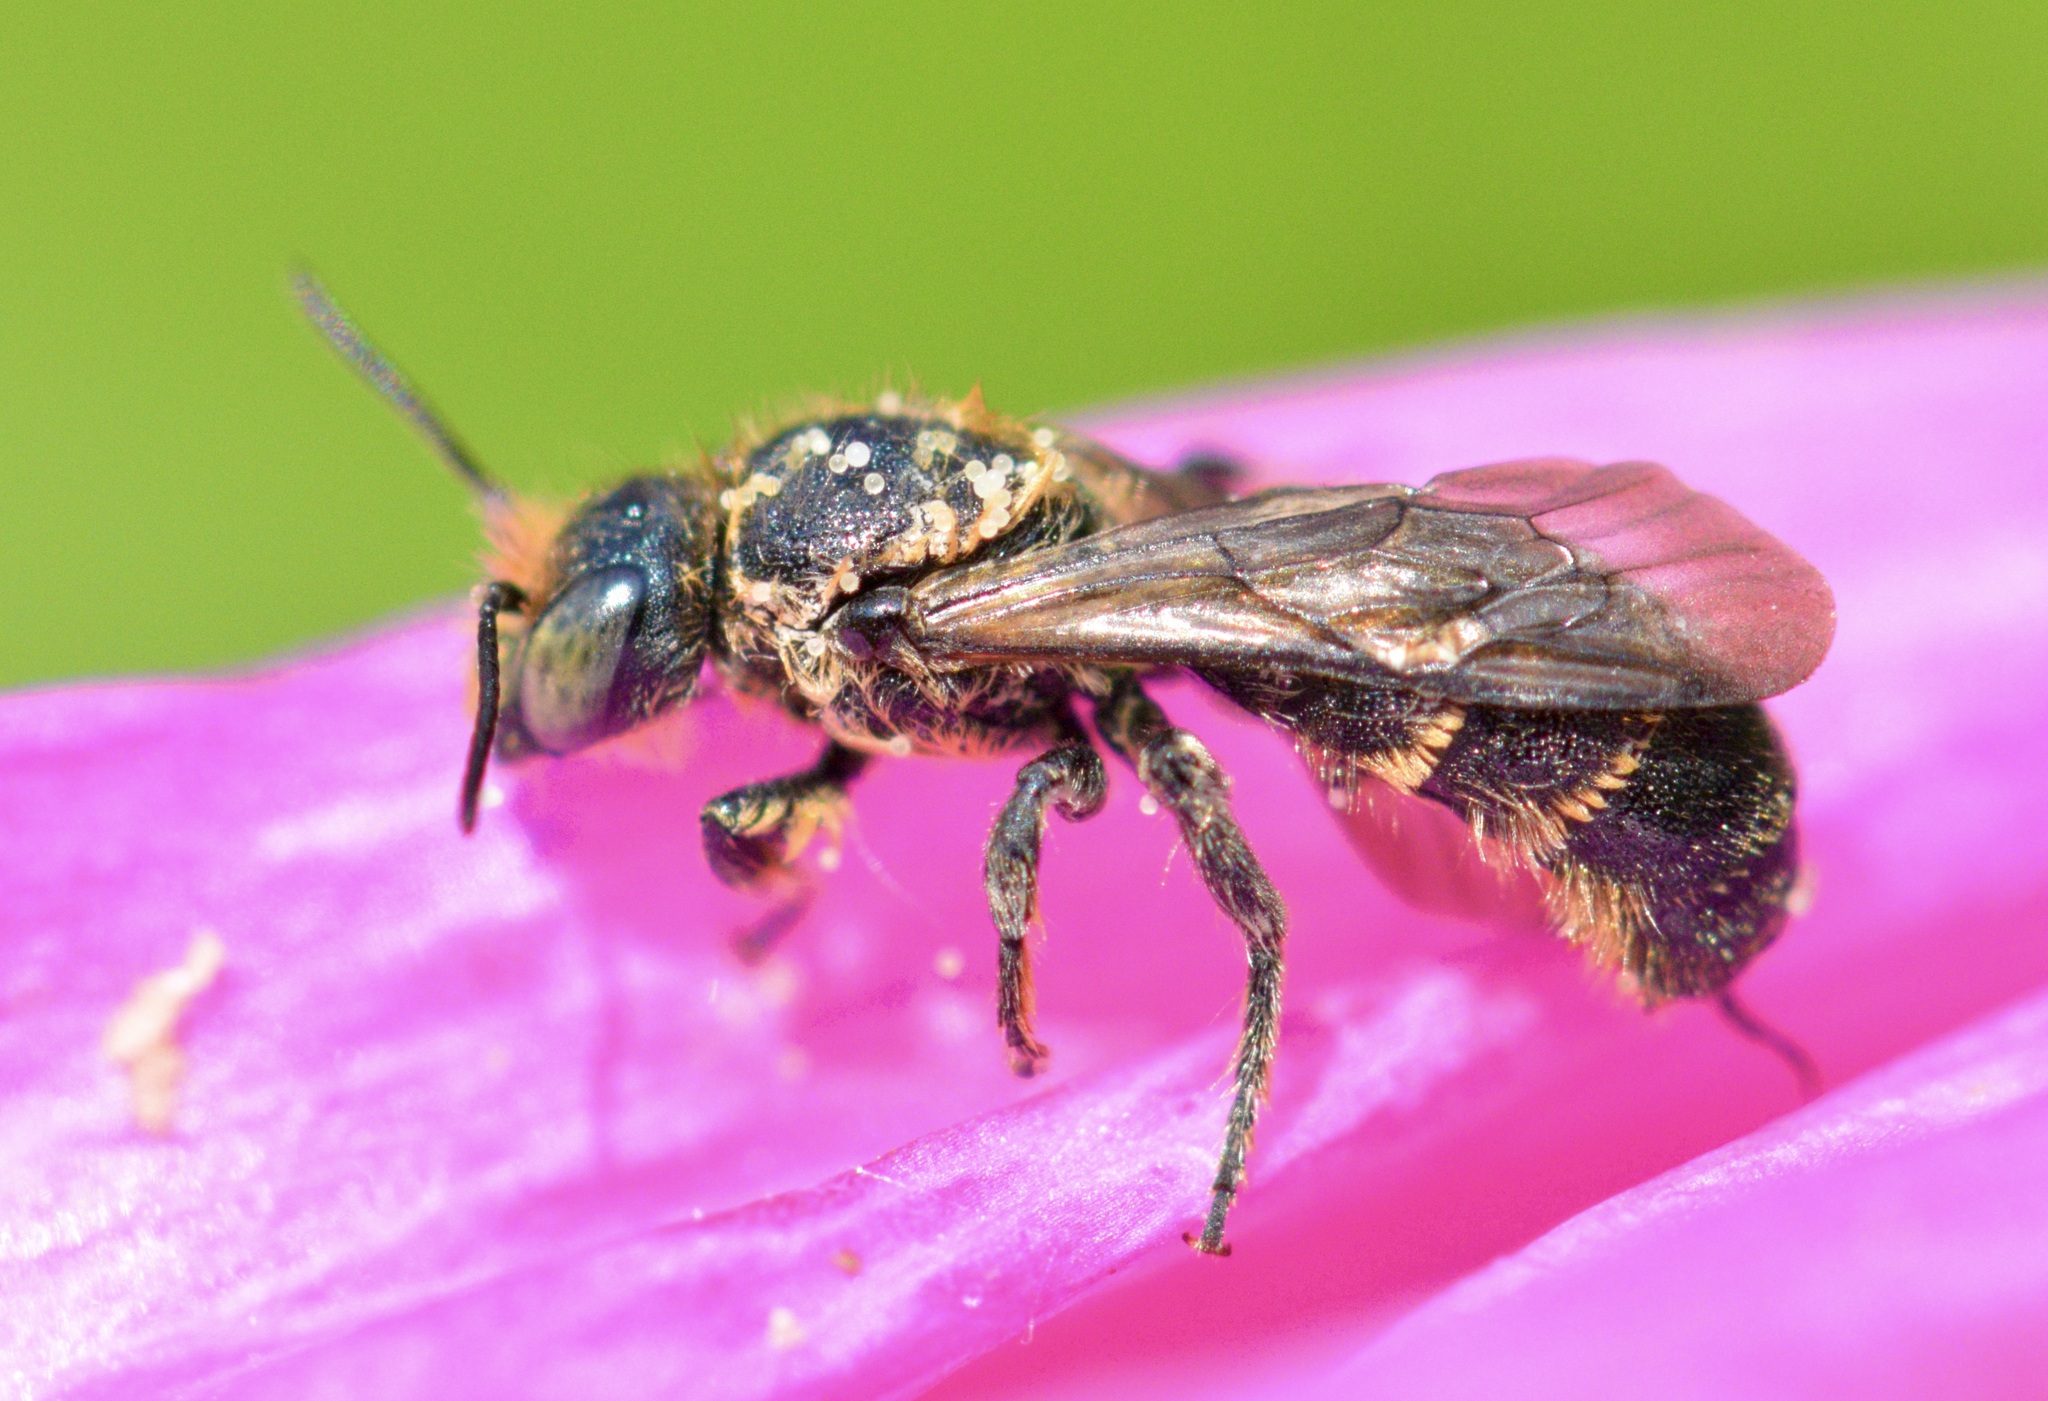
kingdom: Animalia
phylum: Arthropoda
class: Insecta
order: Hymenoptera
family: Megachilidae
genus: Chelostoma
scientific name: Chelostoma rapunculi
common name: Rampion scissor bee
